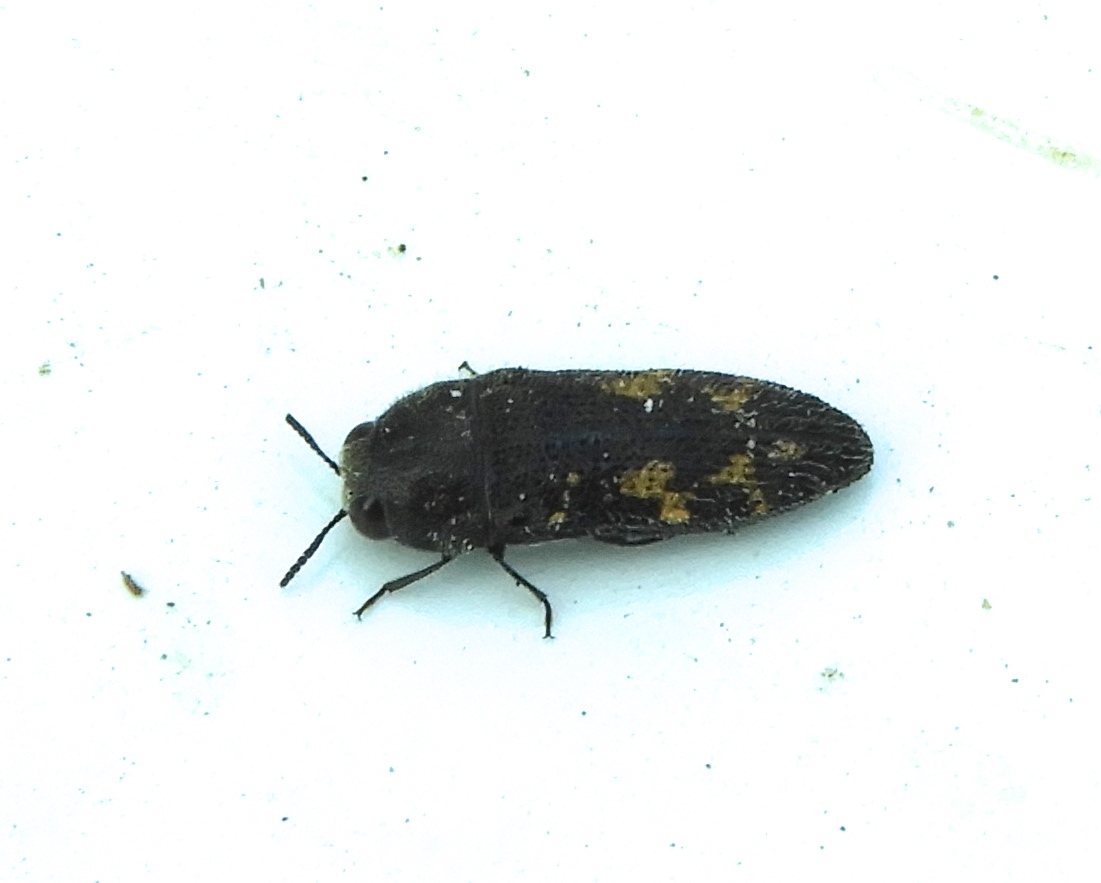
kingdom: Animalia
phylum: Arthropoda
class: Insecta
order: Coleoptera
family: Buprestidae
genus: Acmaeodera
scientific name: Acmaeodera
